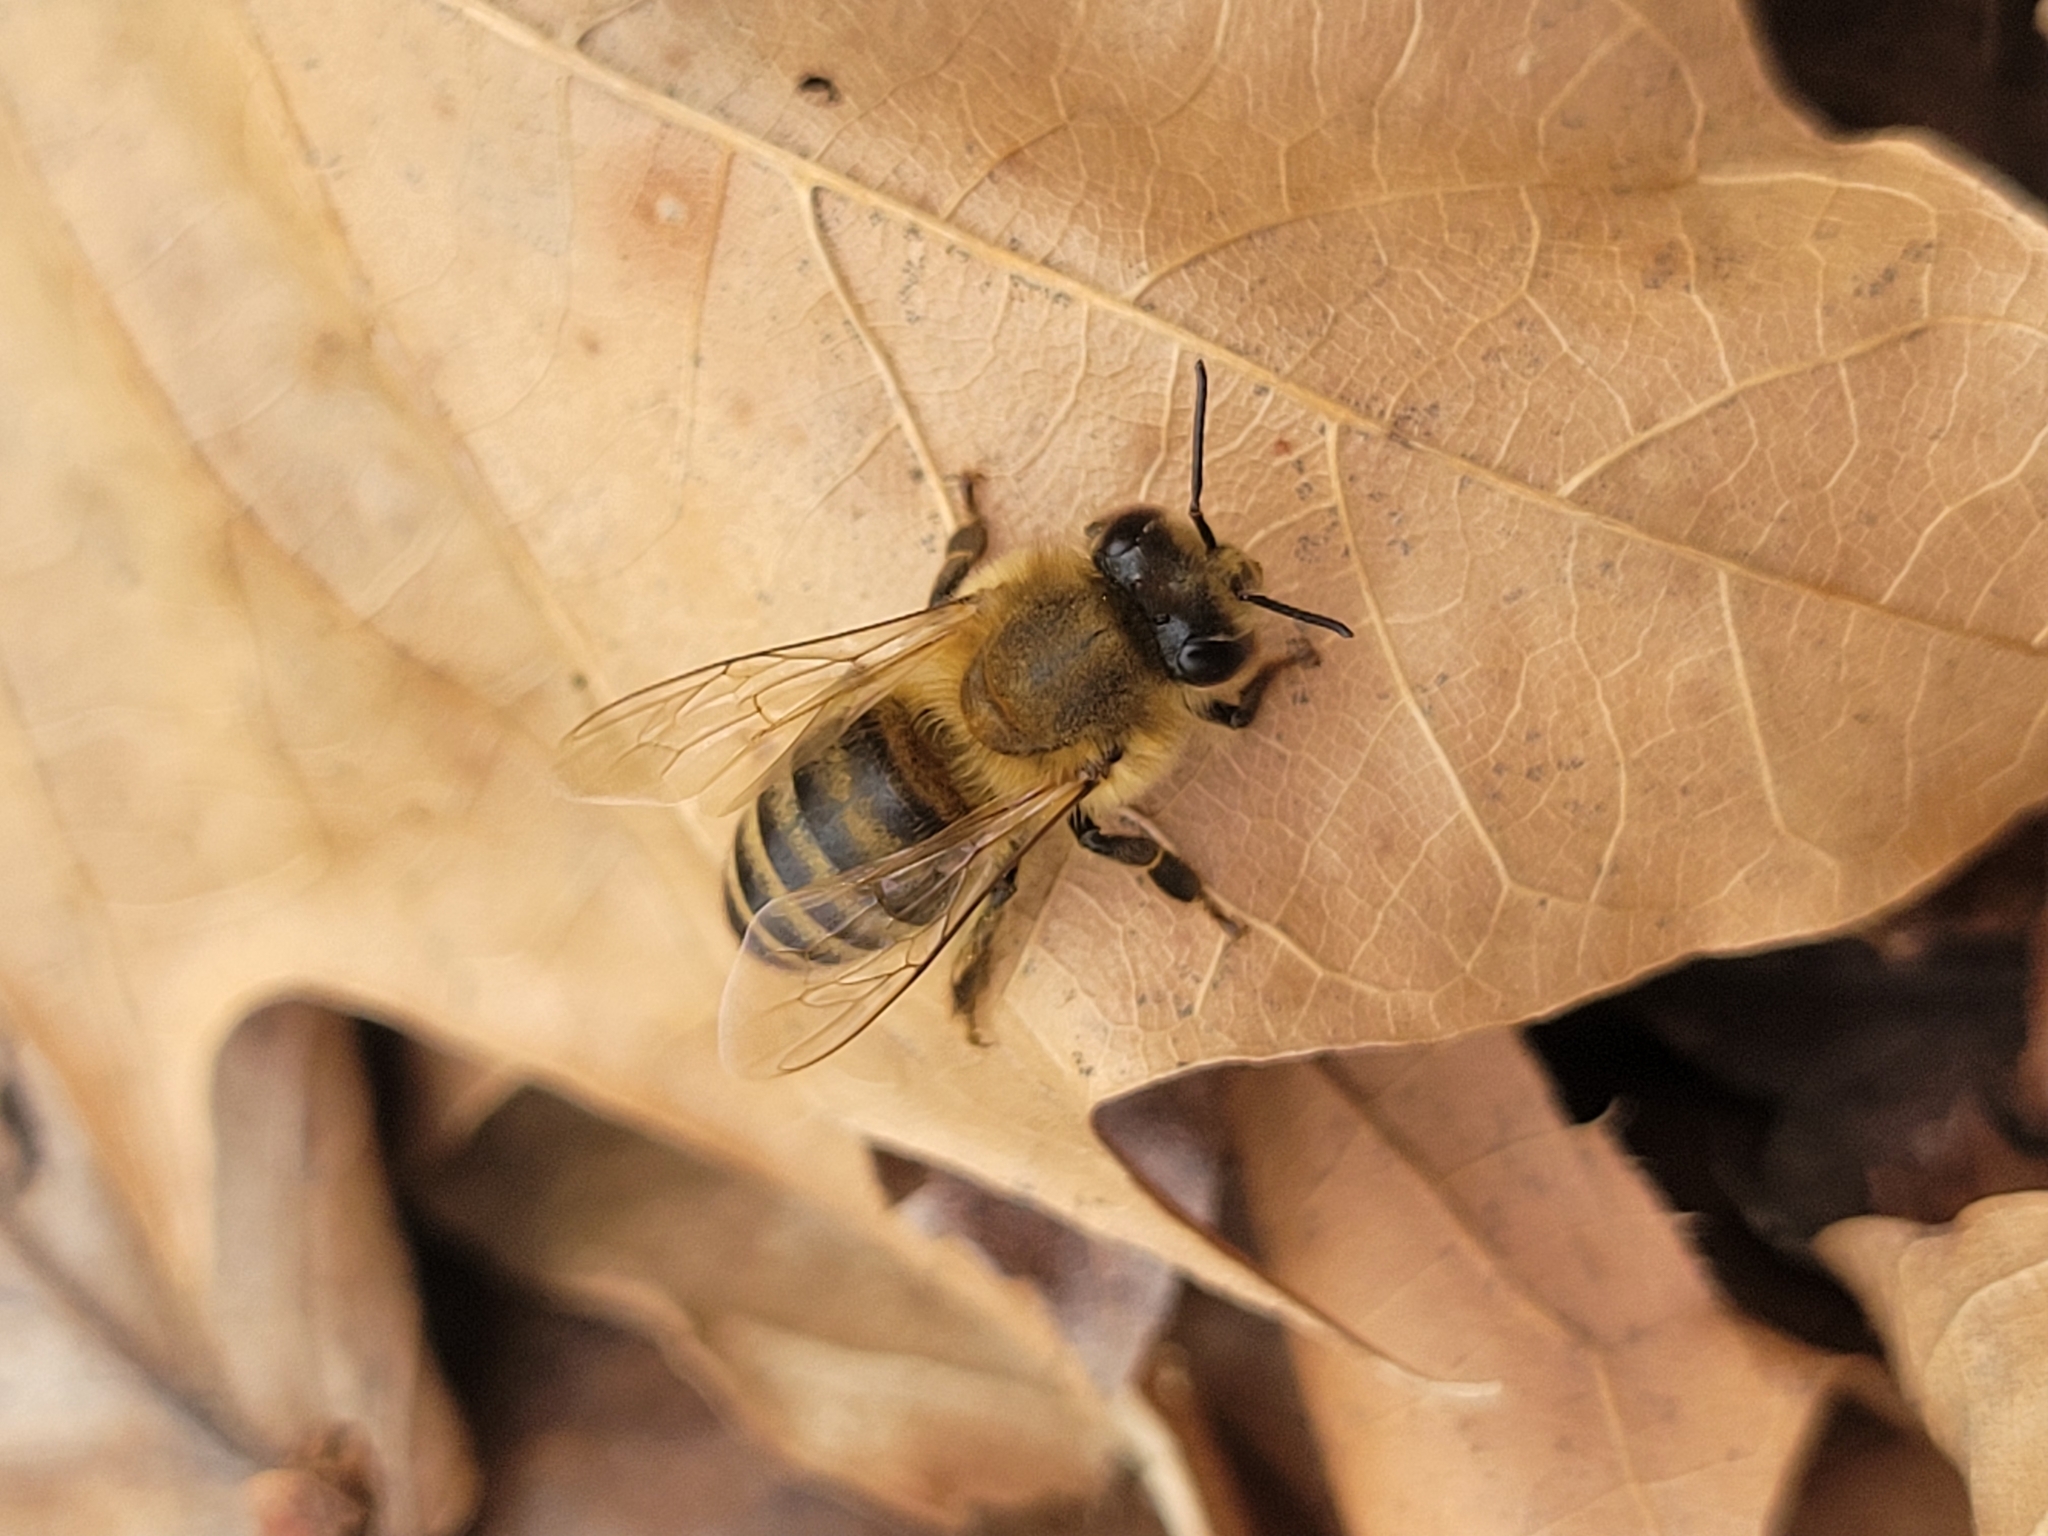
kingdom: Animalia
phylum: Arthropoda
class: Insecta
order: Hymenoptera
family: Apidae
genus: Apis
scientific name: Apis mellifera
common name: Honey bee
